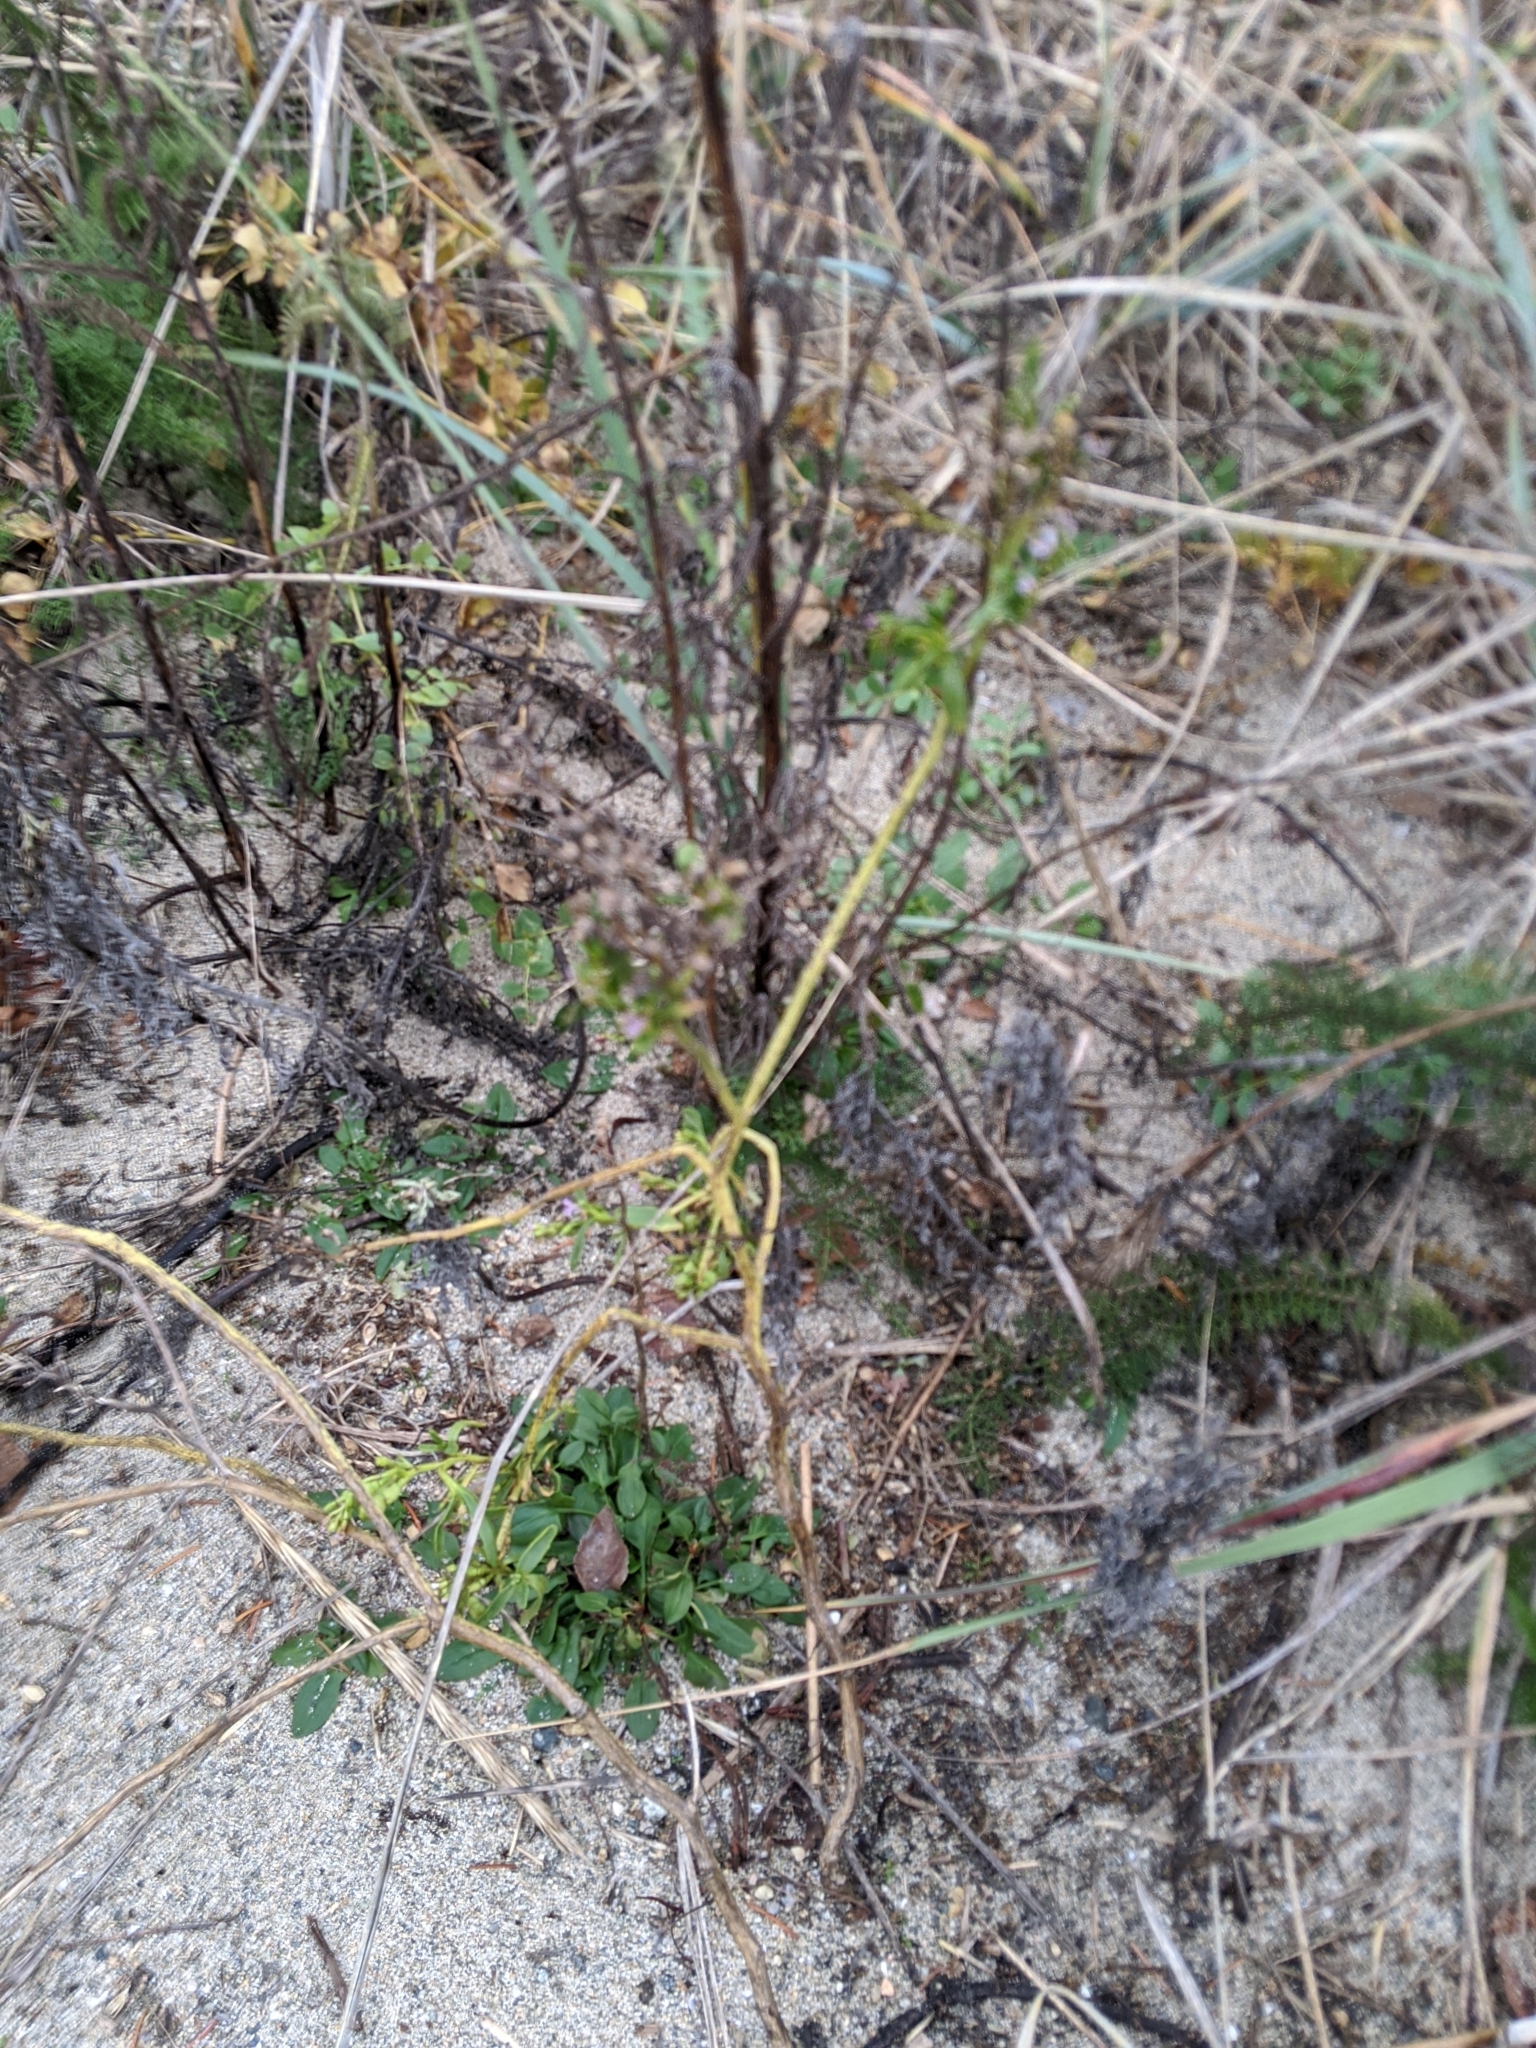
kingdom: Plantae
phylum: Tracheophyta
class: Magnoliopsida
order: Brassicales
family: Brassicaceae
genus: Cakile
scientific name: Cakile edentula
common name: American sea rocket
